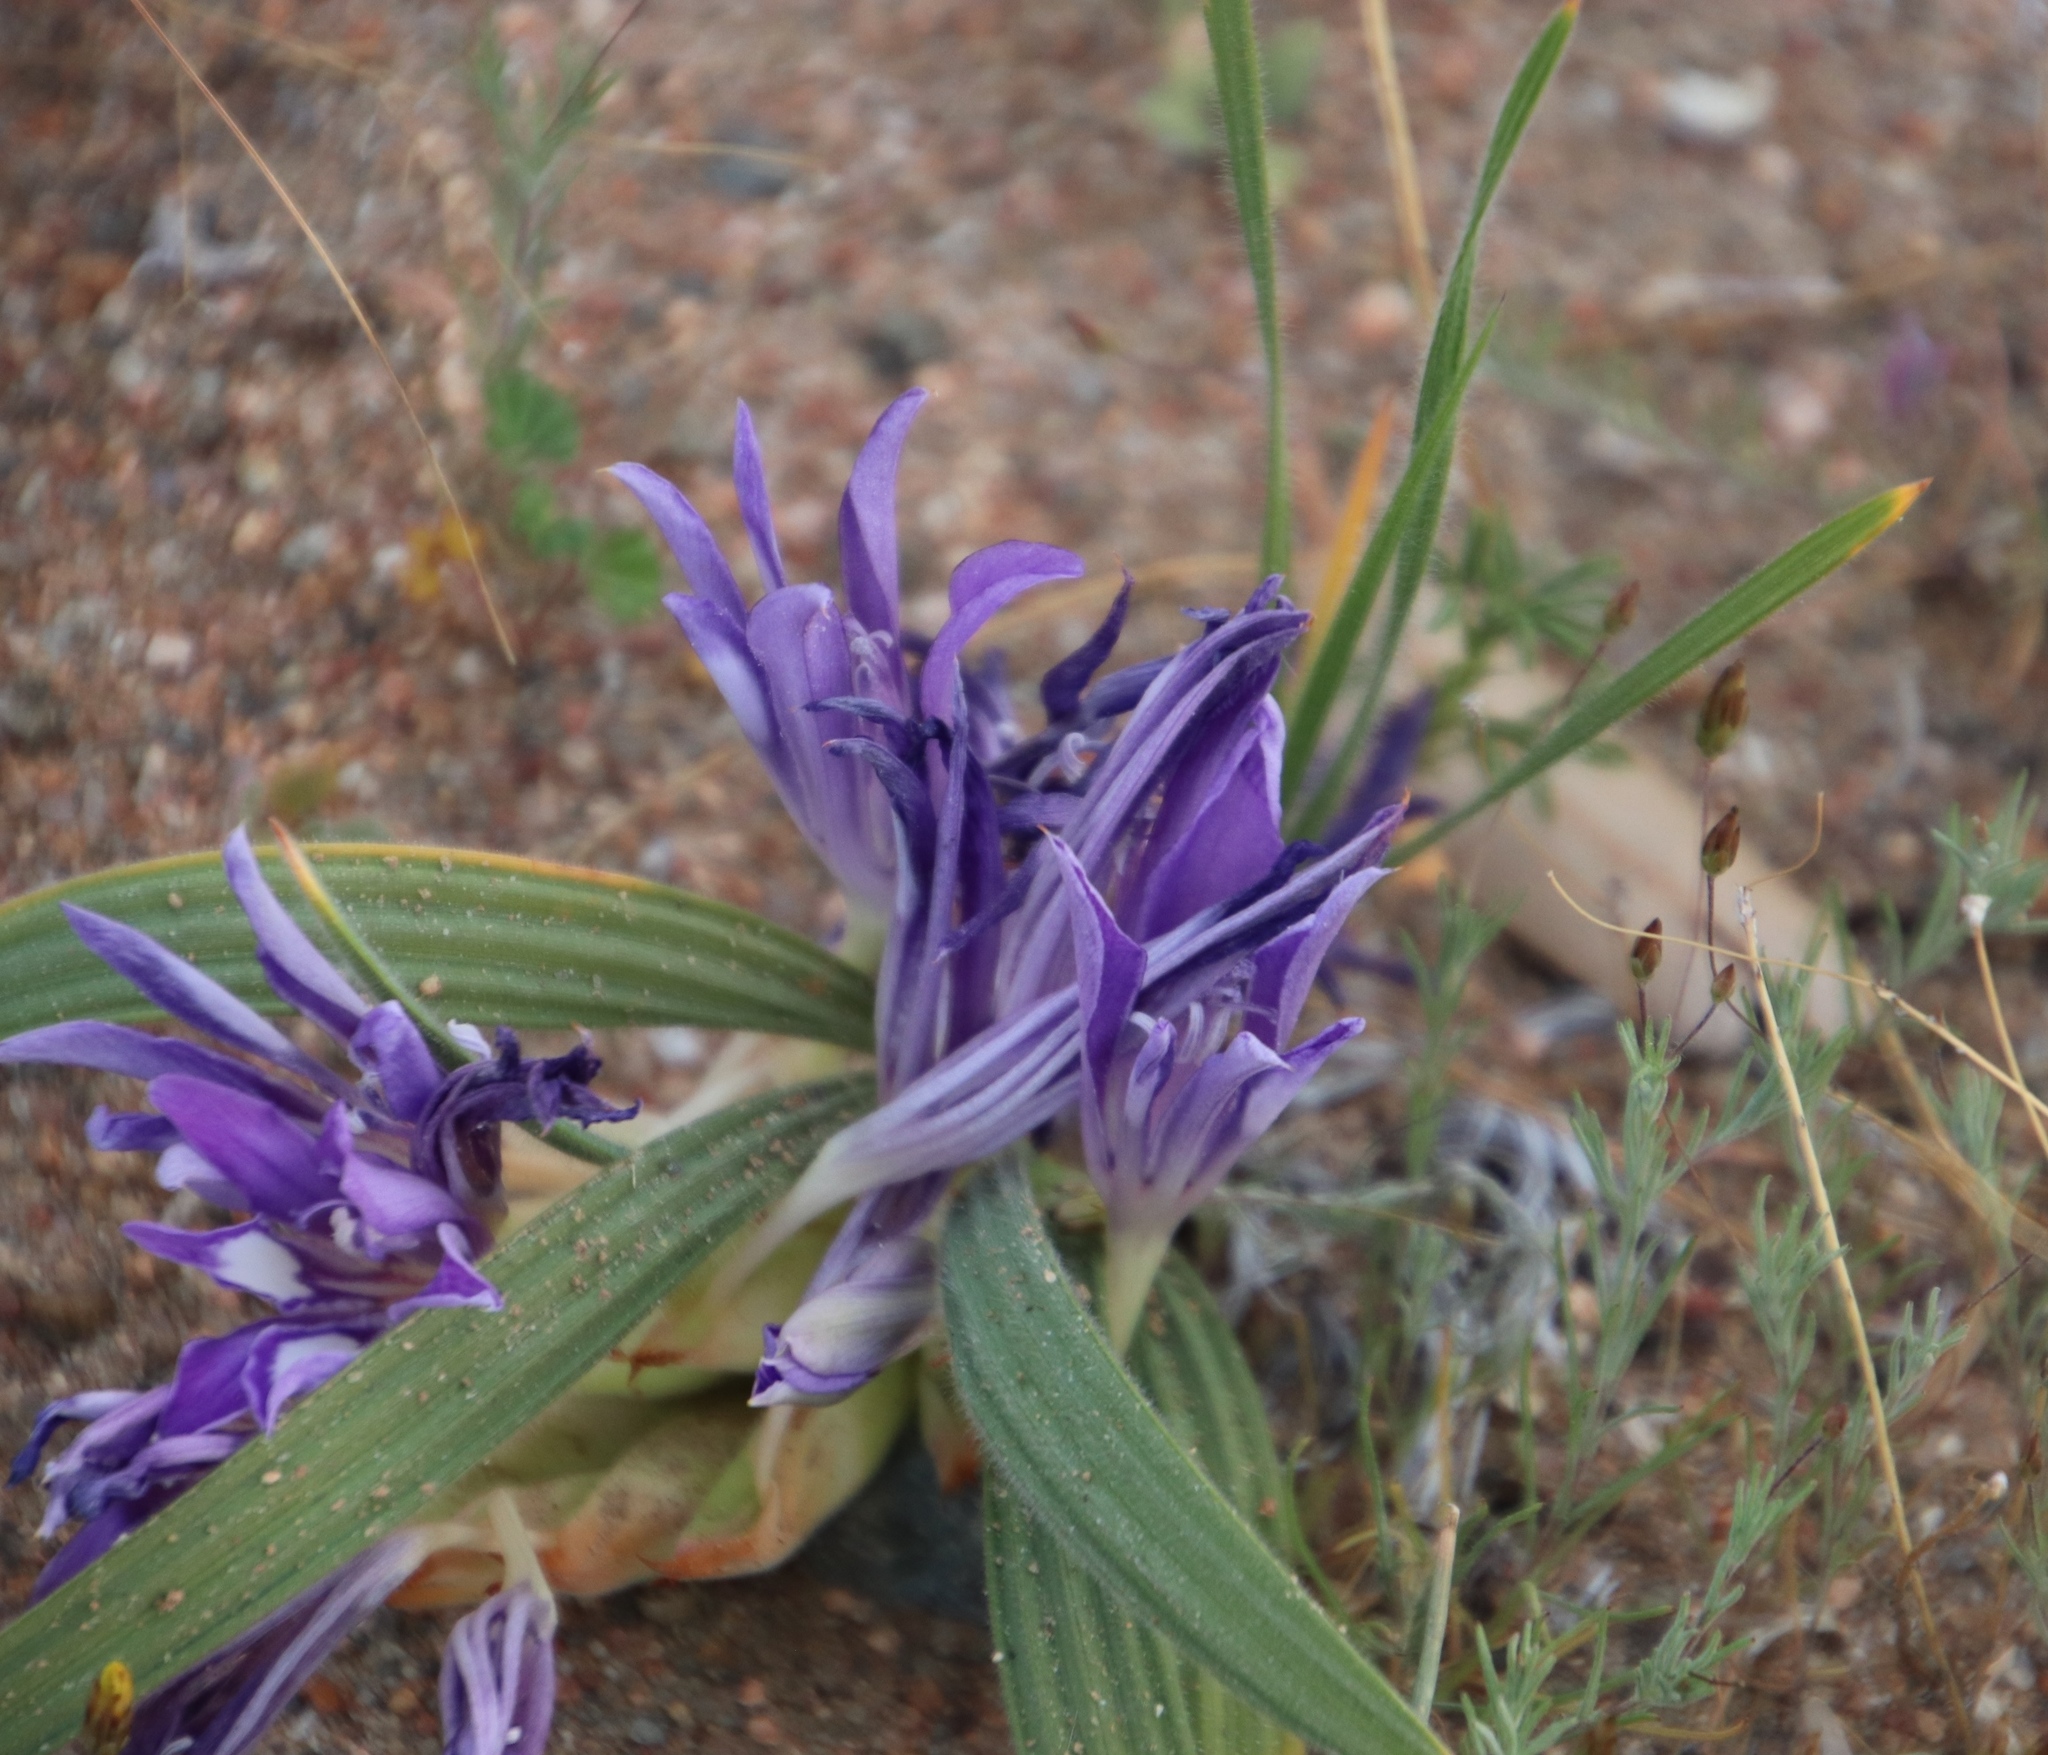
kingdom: Plantae
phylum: Tracheophyta
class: Liliopsida
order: Asparagales
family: Iridaceae
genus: Babiana
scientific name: Babiana curviscapa
